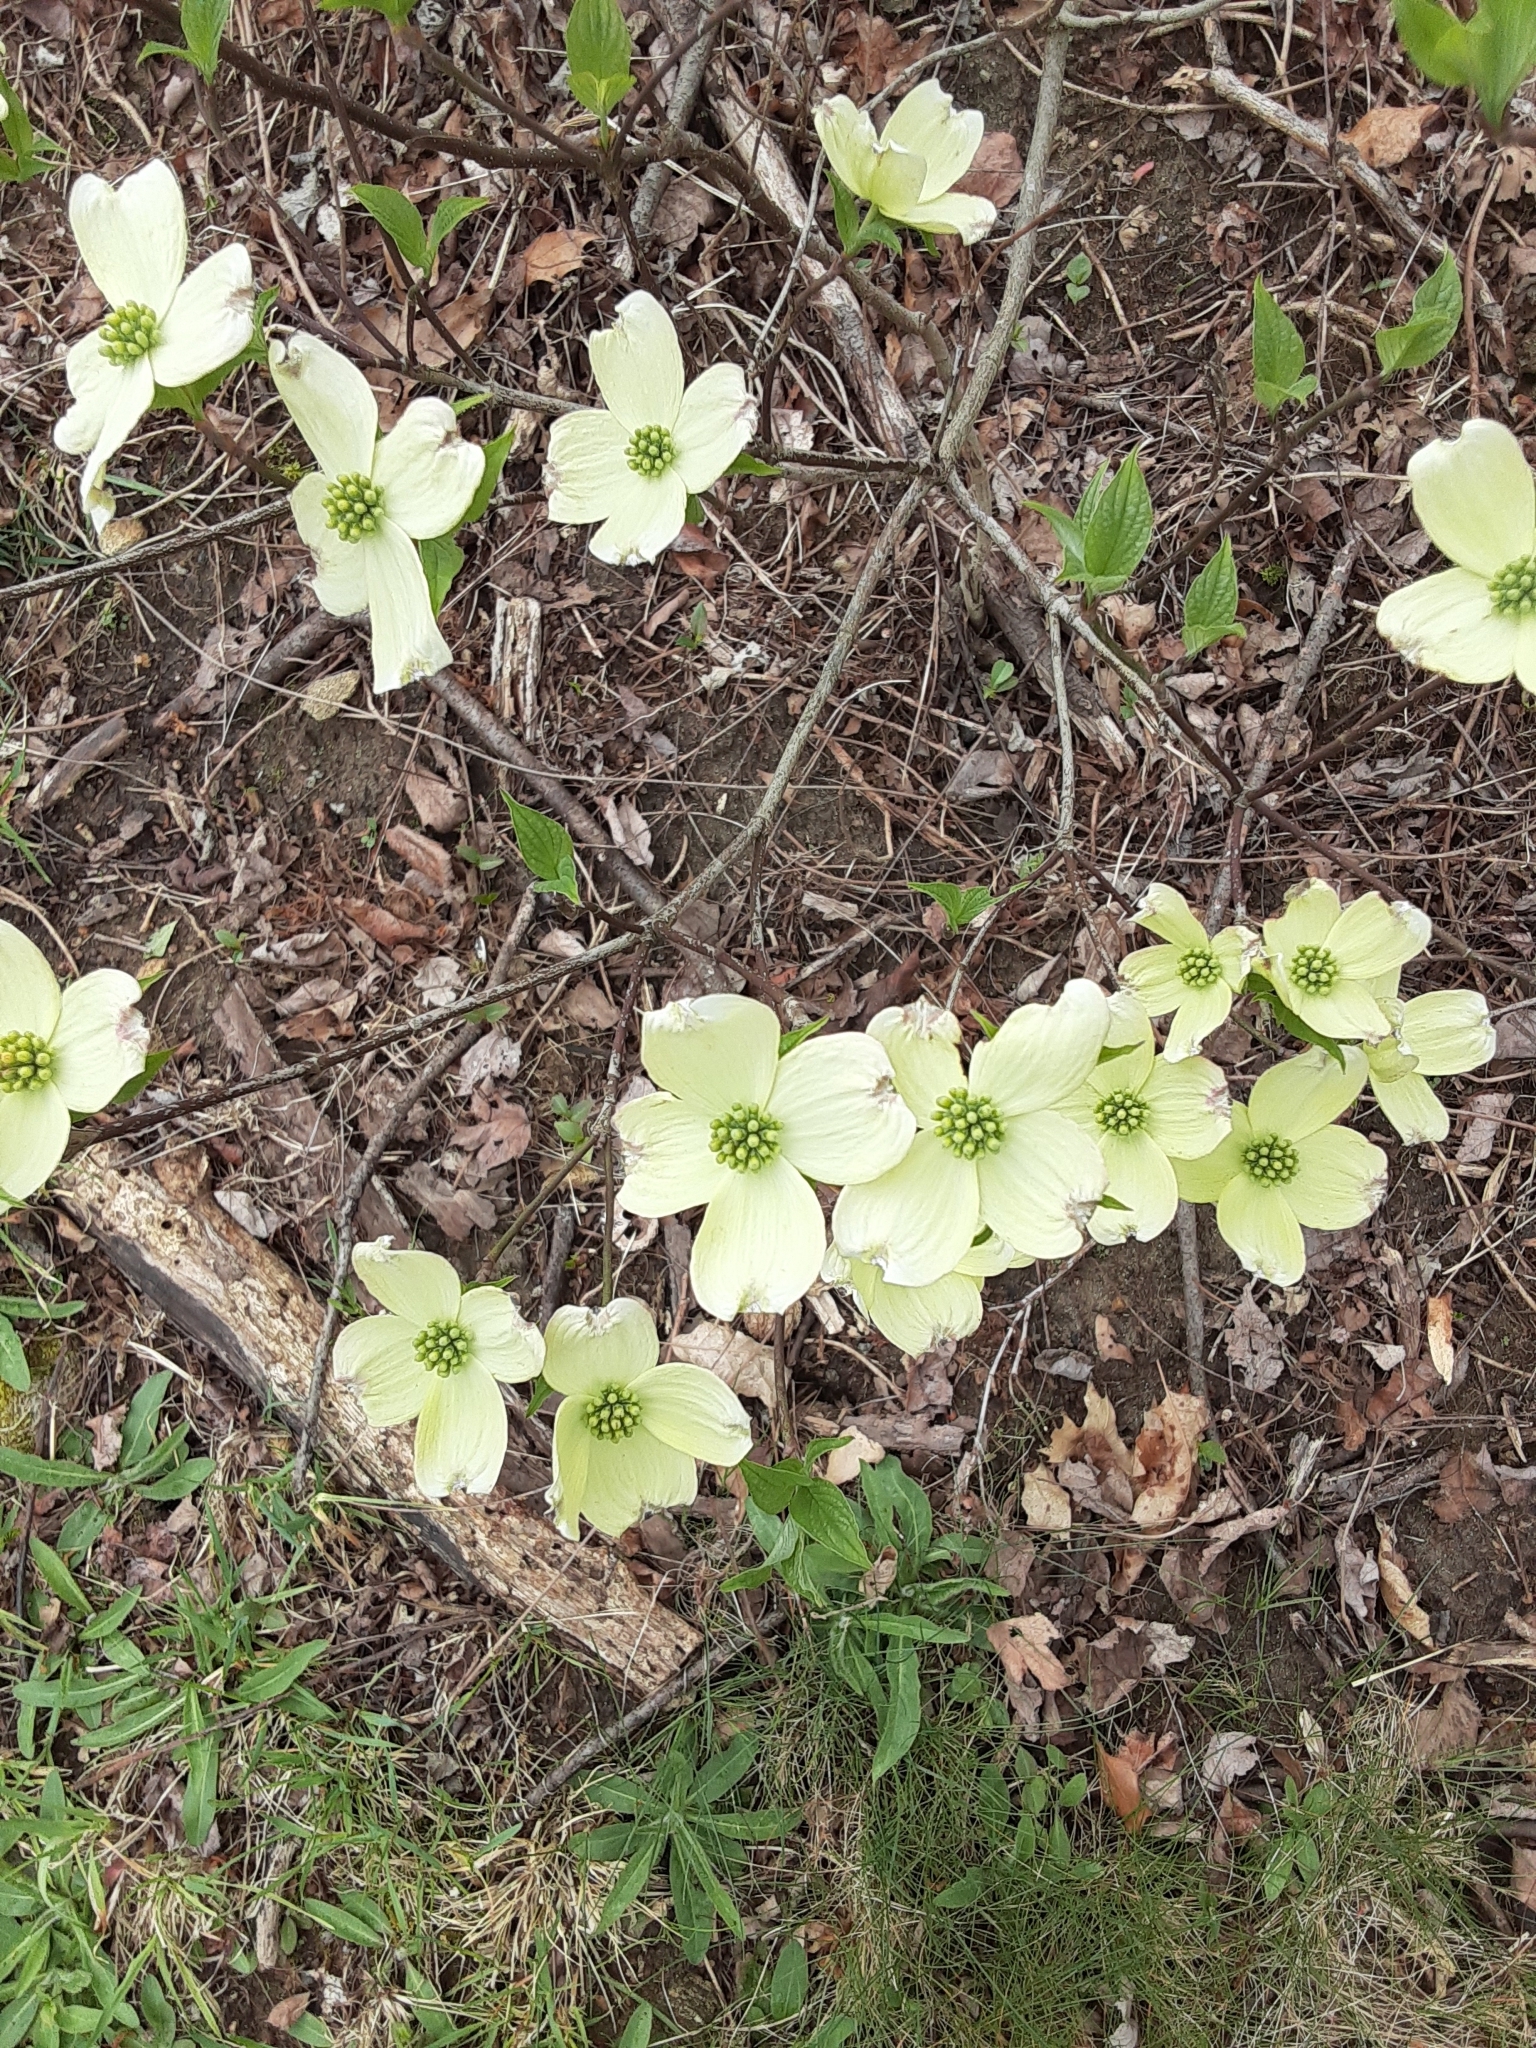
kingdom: Plantae
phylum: Tracheophyta
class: Magnoliopsida
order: Cornales
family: Cornaceae
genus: Cornus
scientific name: Cornus florida
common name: Flowering dogwood
